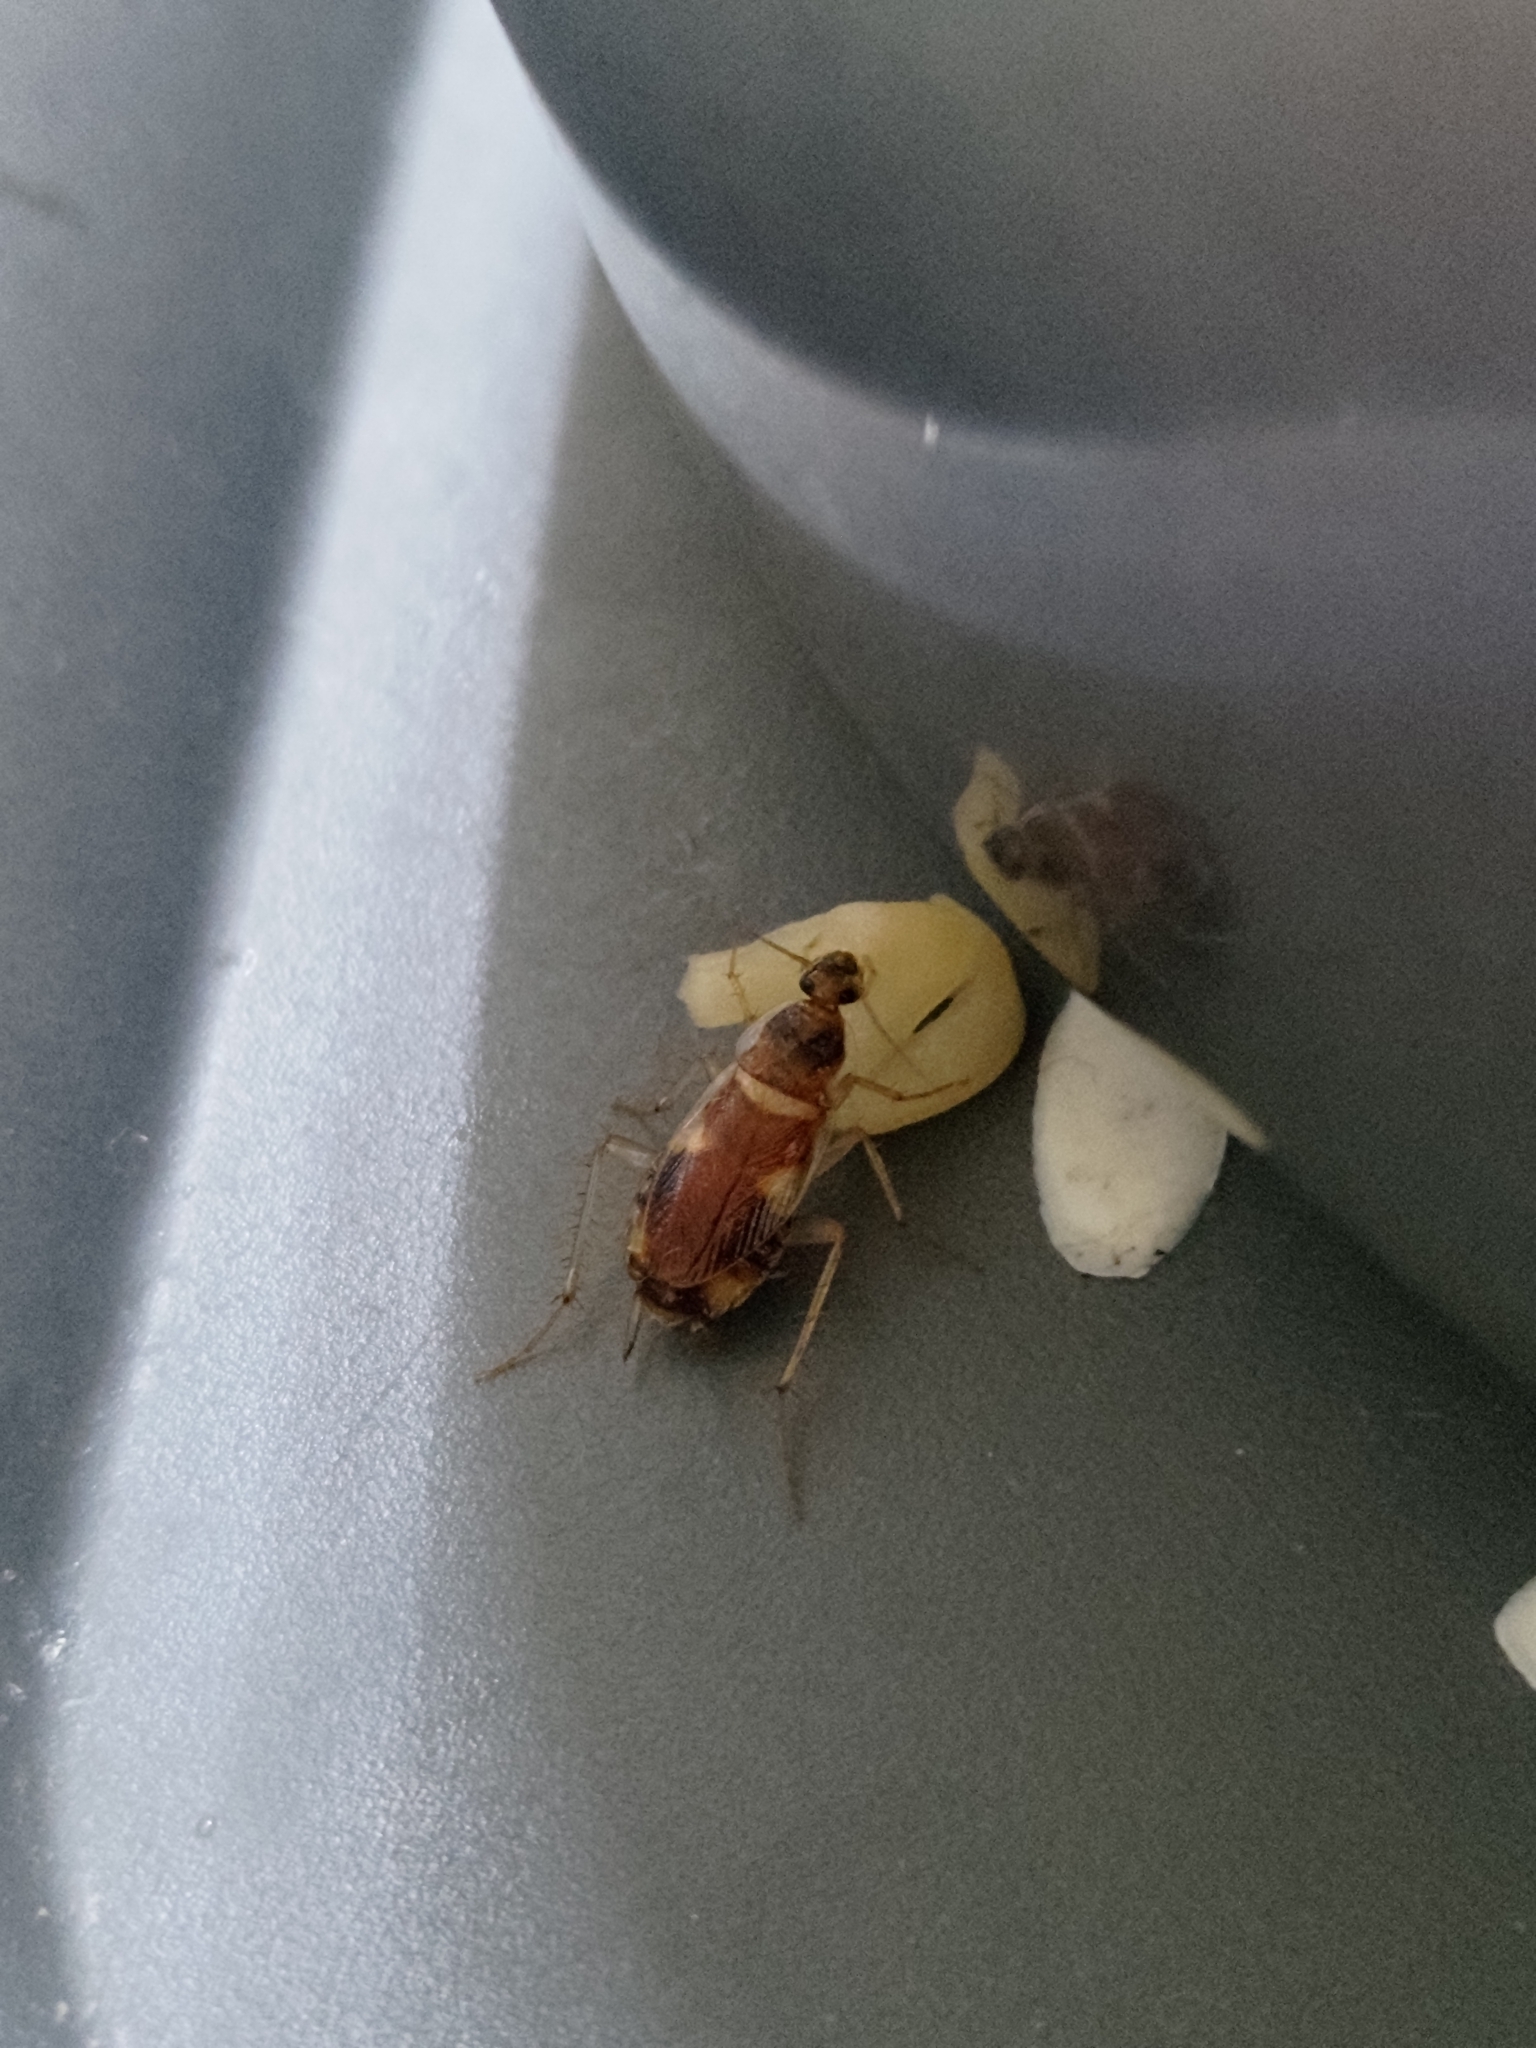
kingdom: Animalia
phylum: Arthropoda
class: Insecta
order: Blattodea
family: Ectobiidae
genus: Supella
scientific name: Supella longipalpa
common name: Brown-banded cockroach
